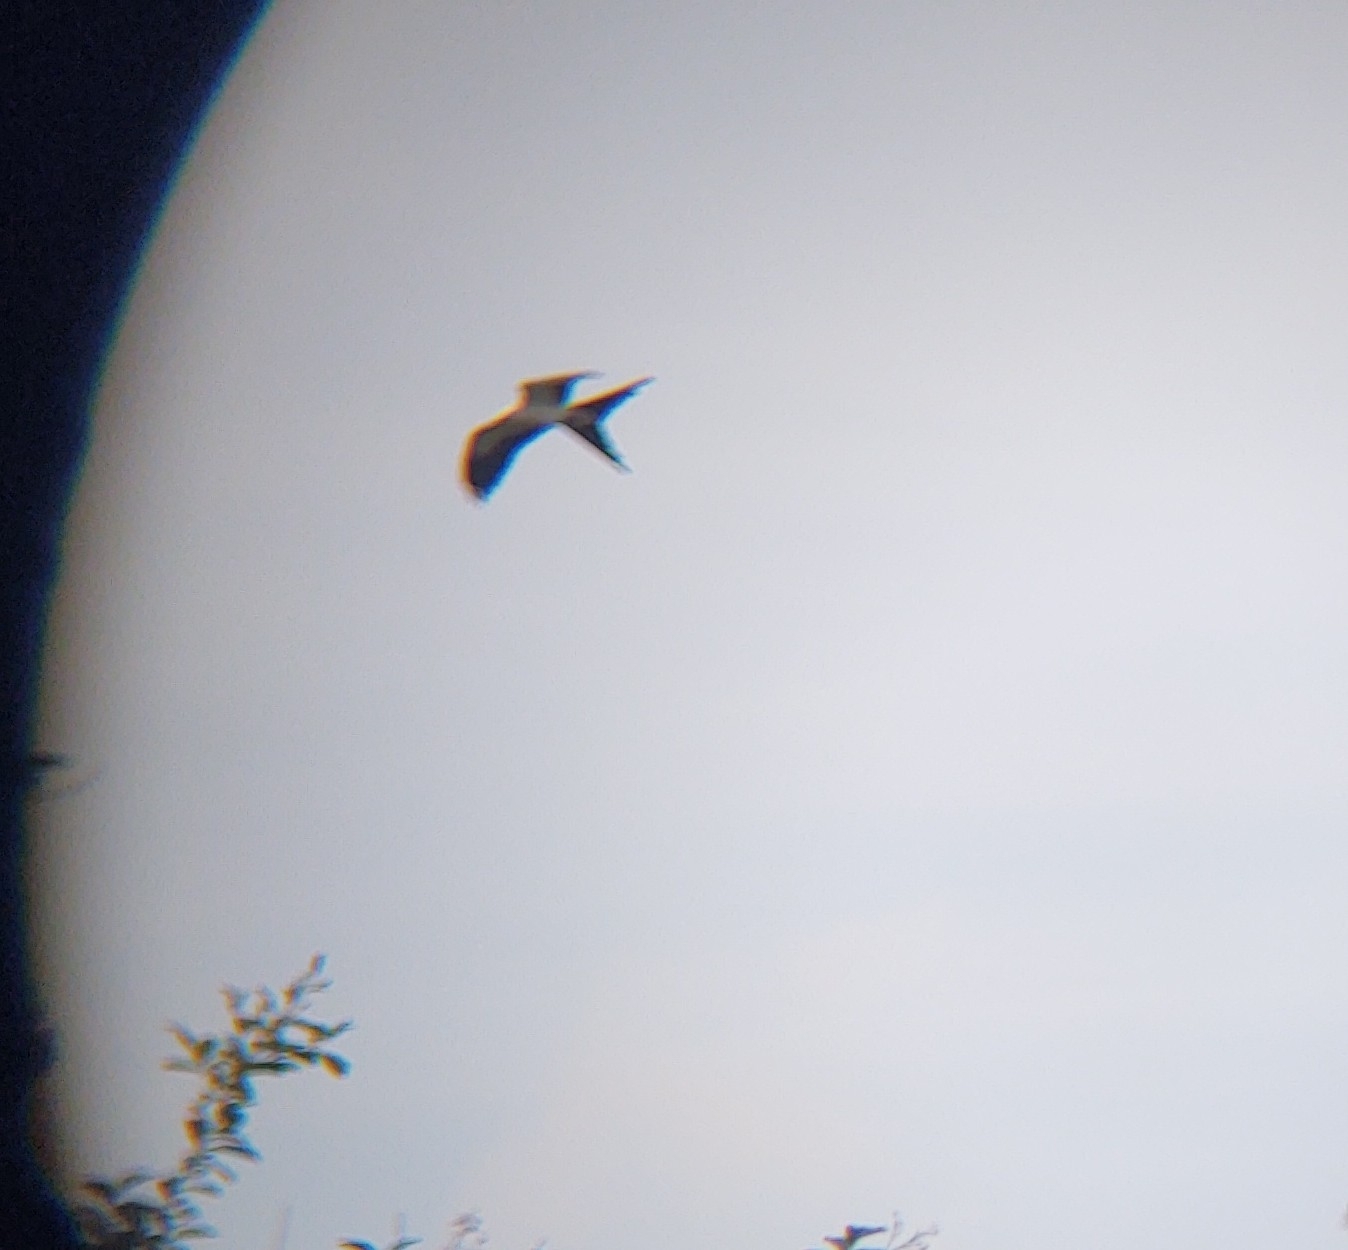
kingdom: Animalia
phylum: Chordata
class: Aves
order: Accipitriformes
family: Accipitridae
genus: Elanoides
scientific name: Elanoides forficatus
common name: Swallow-tailed kite
